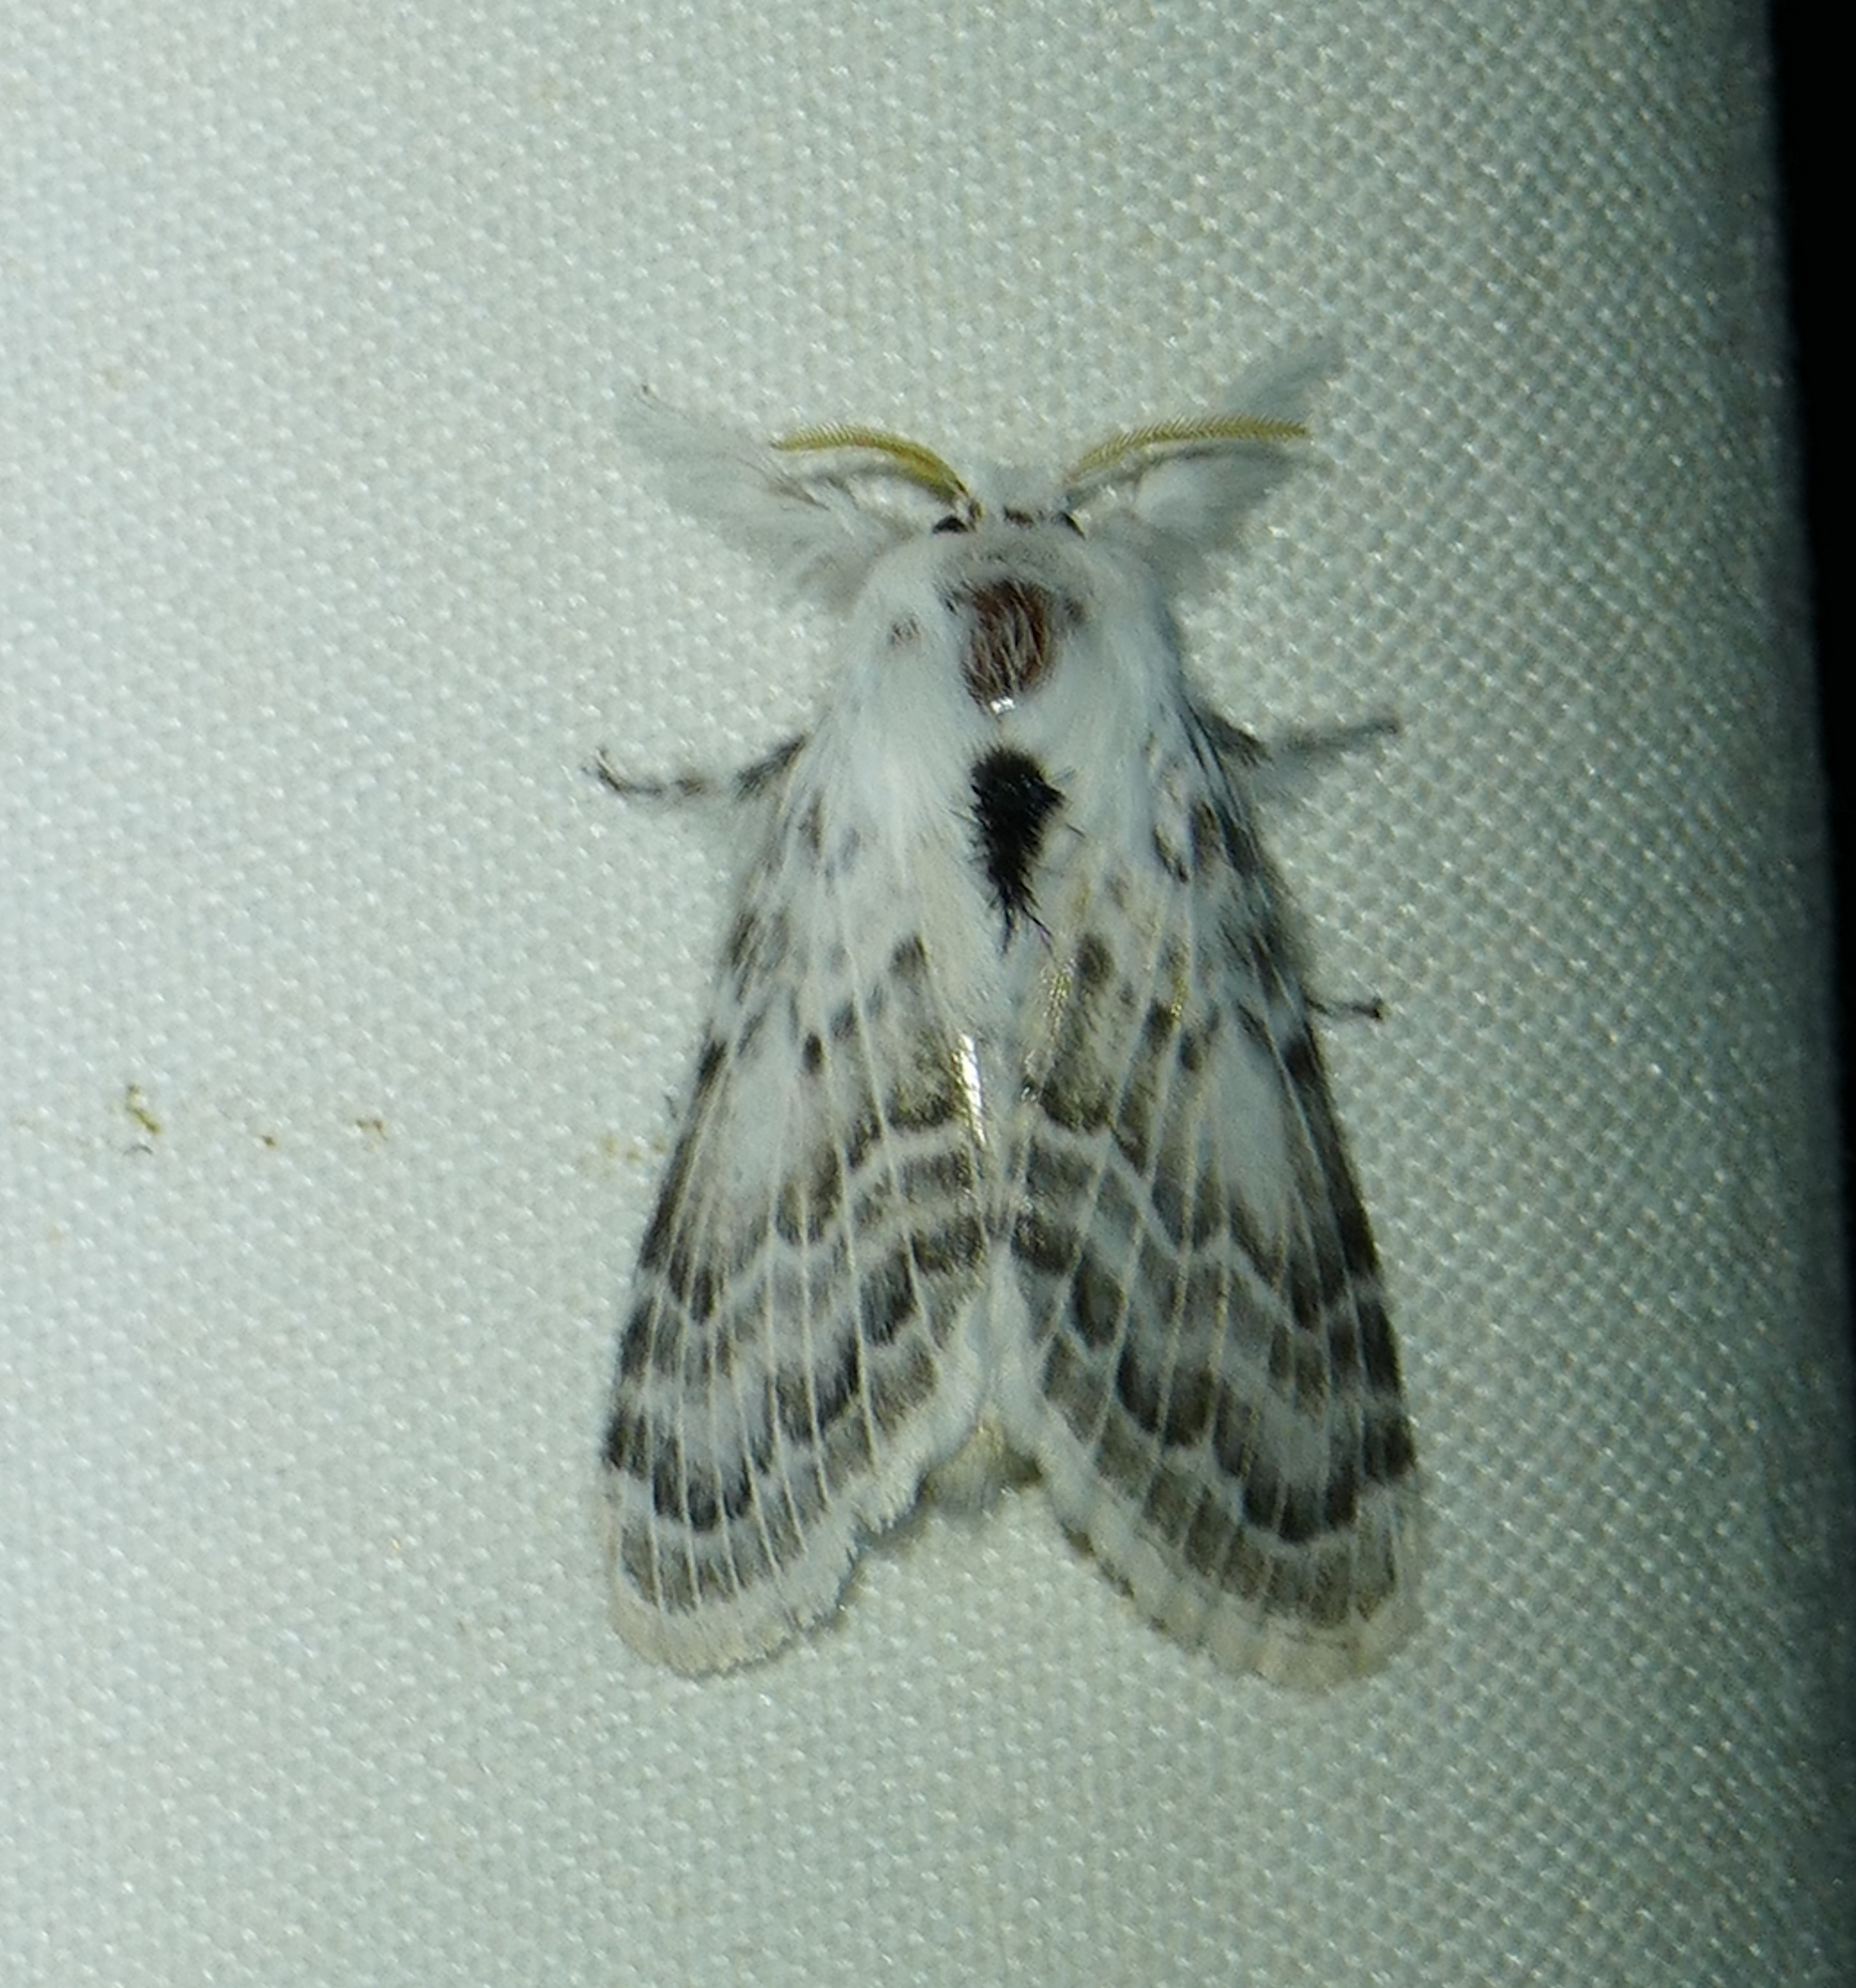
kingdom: Animalia
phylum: Arthropoda
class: Insecta
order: Lepidoptera
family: Lasiocampidae
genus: Apotolype
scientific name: Apotolype brevicrista
